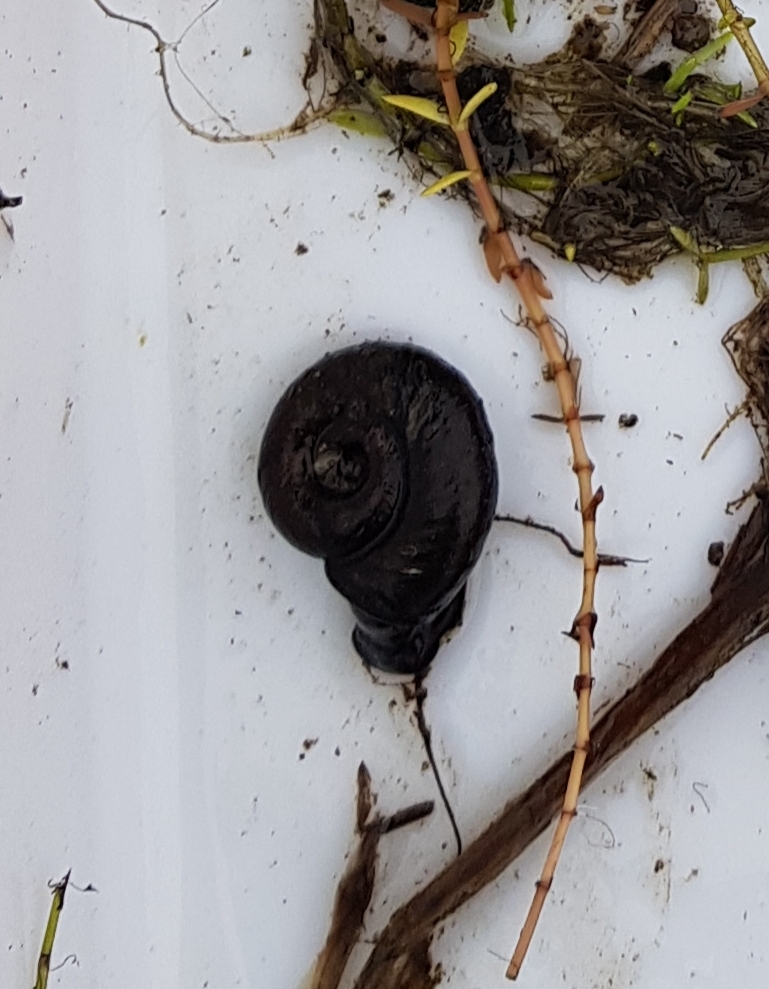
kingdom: Animalia
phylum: Mollusca
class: Gastropoda
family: Planorbidae
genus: Planorbarius
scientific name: Planorbarius corneus
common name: Great ramshorn
